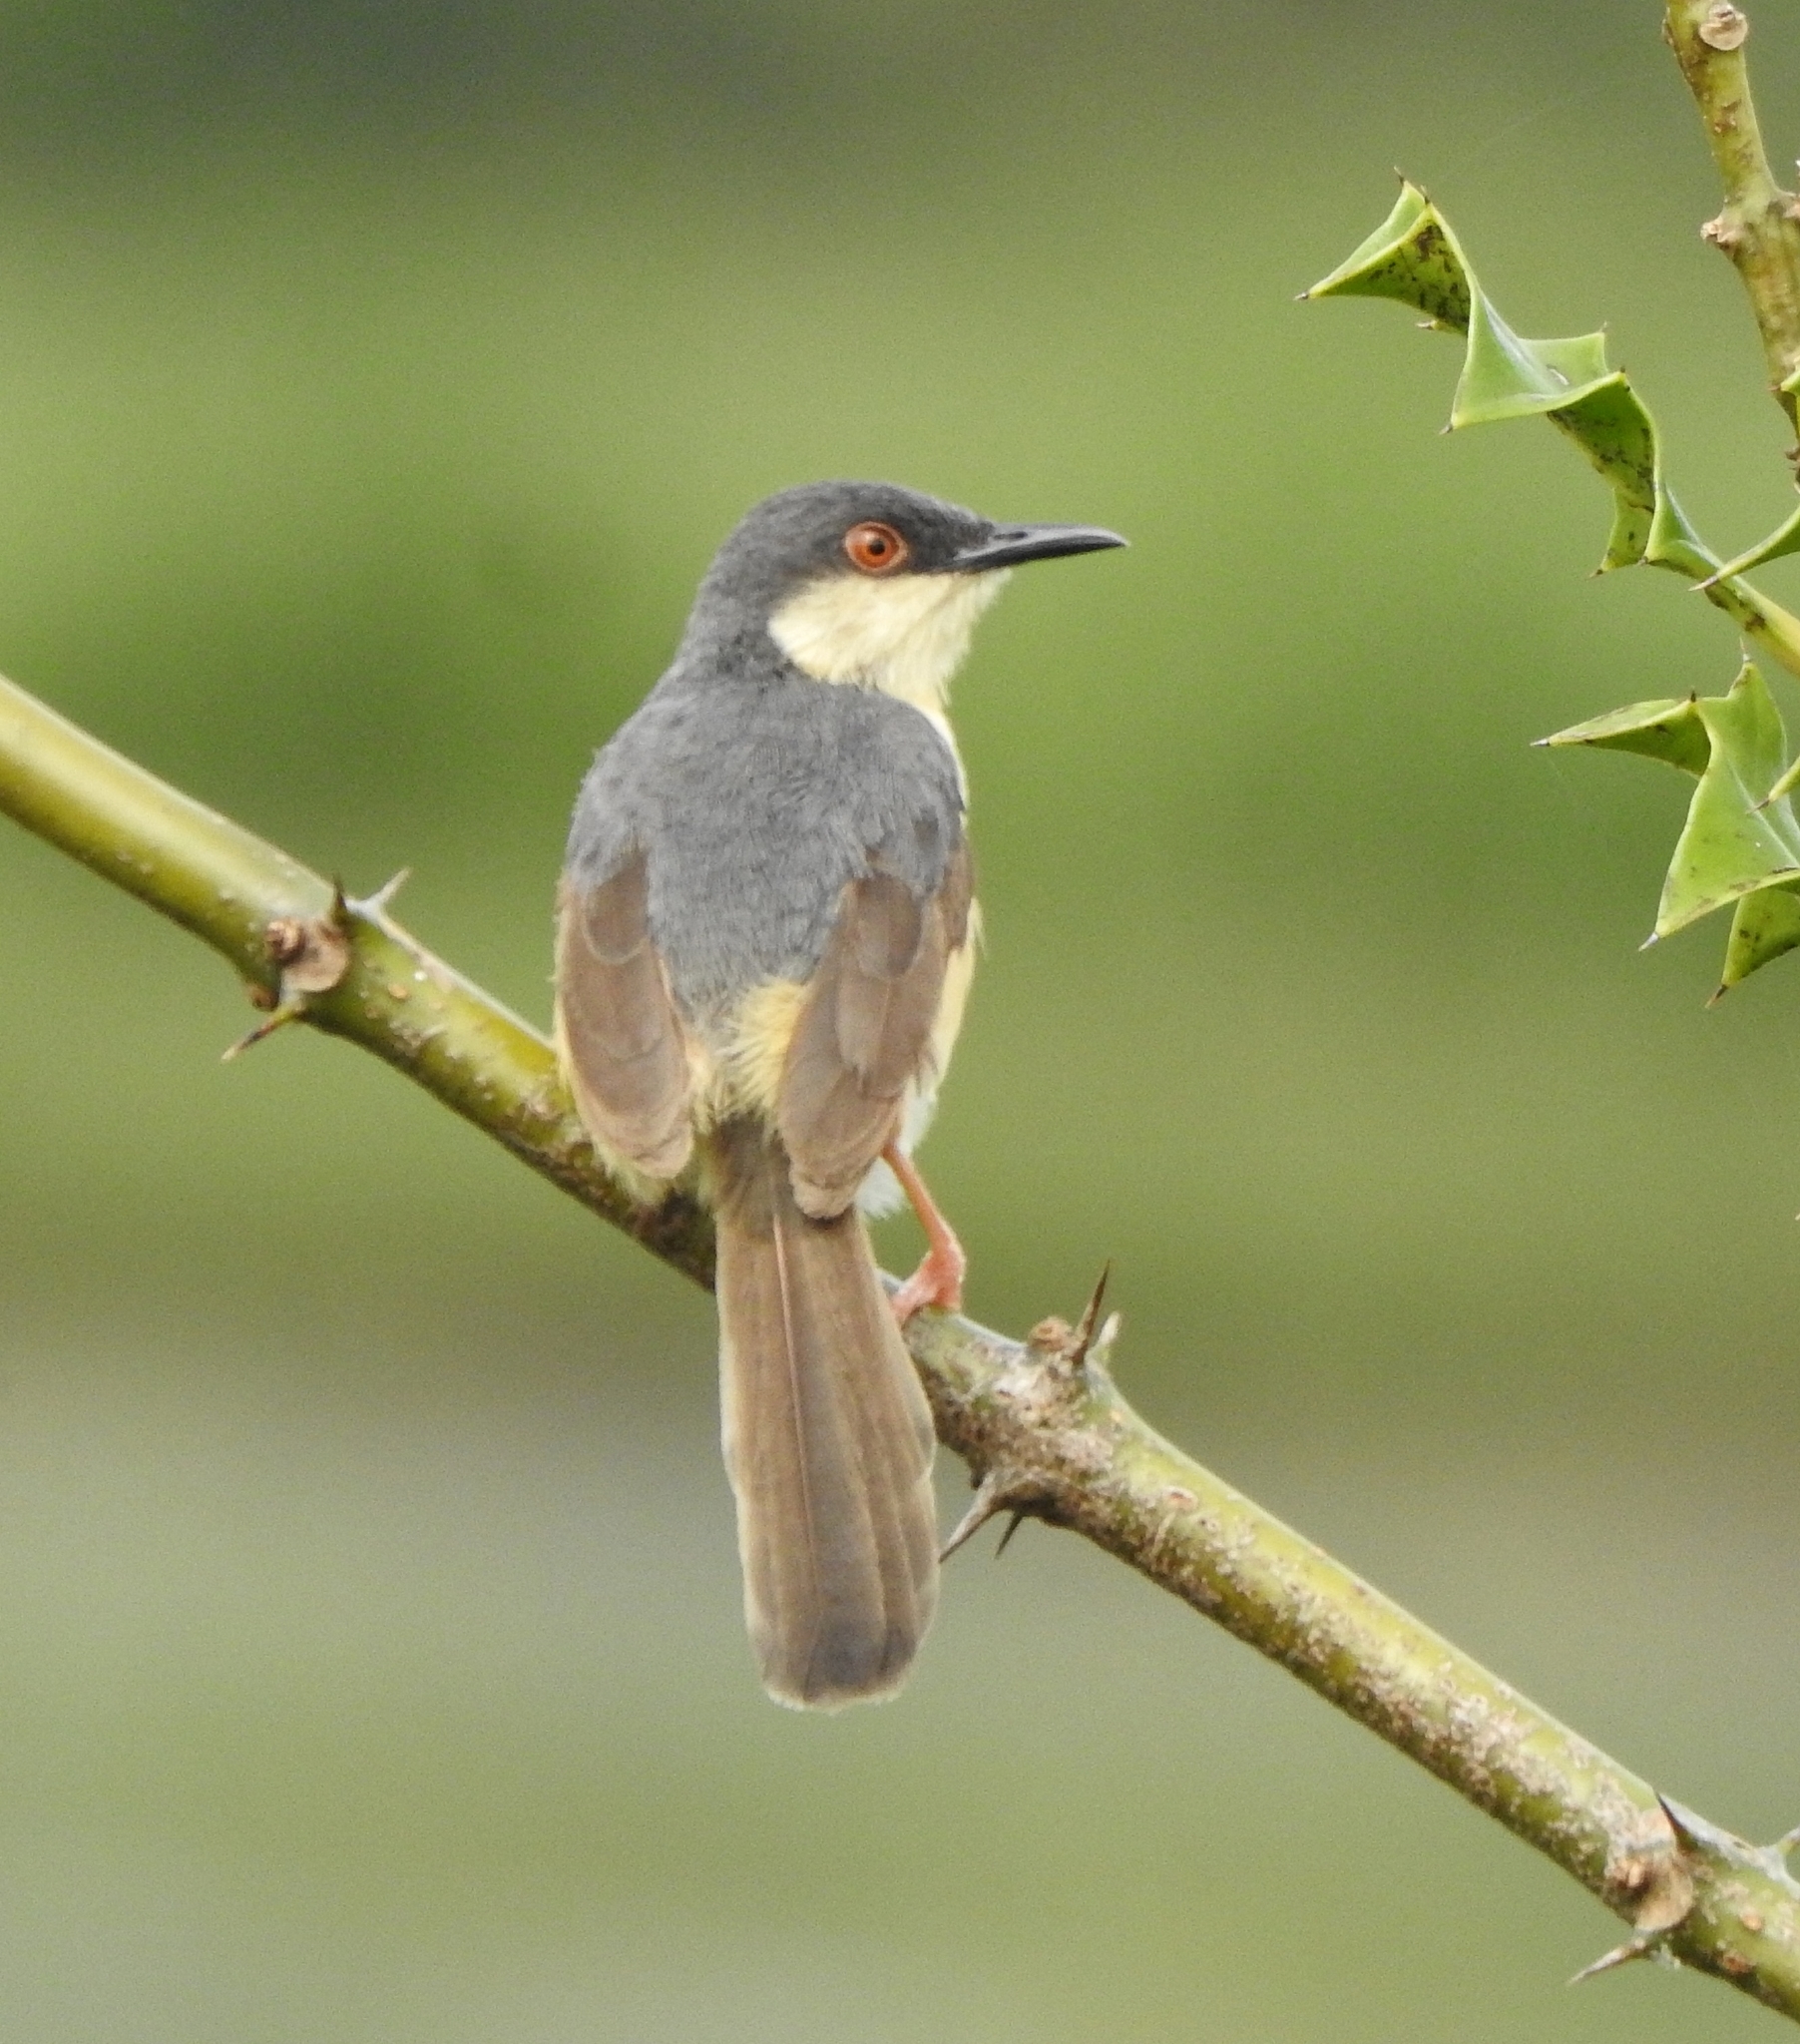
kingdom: Animalia
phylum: Chordata
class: Aves
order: Passeriformes
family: Cisticolidae
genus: Prinia
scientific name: Prinia socialis
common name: Ashy prinia
